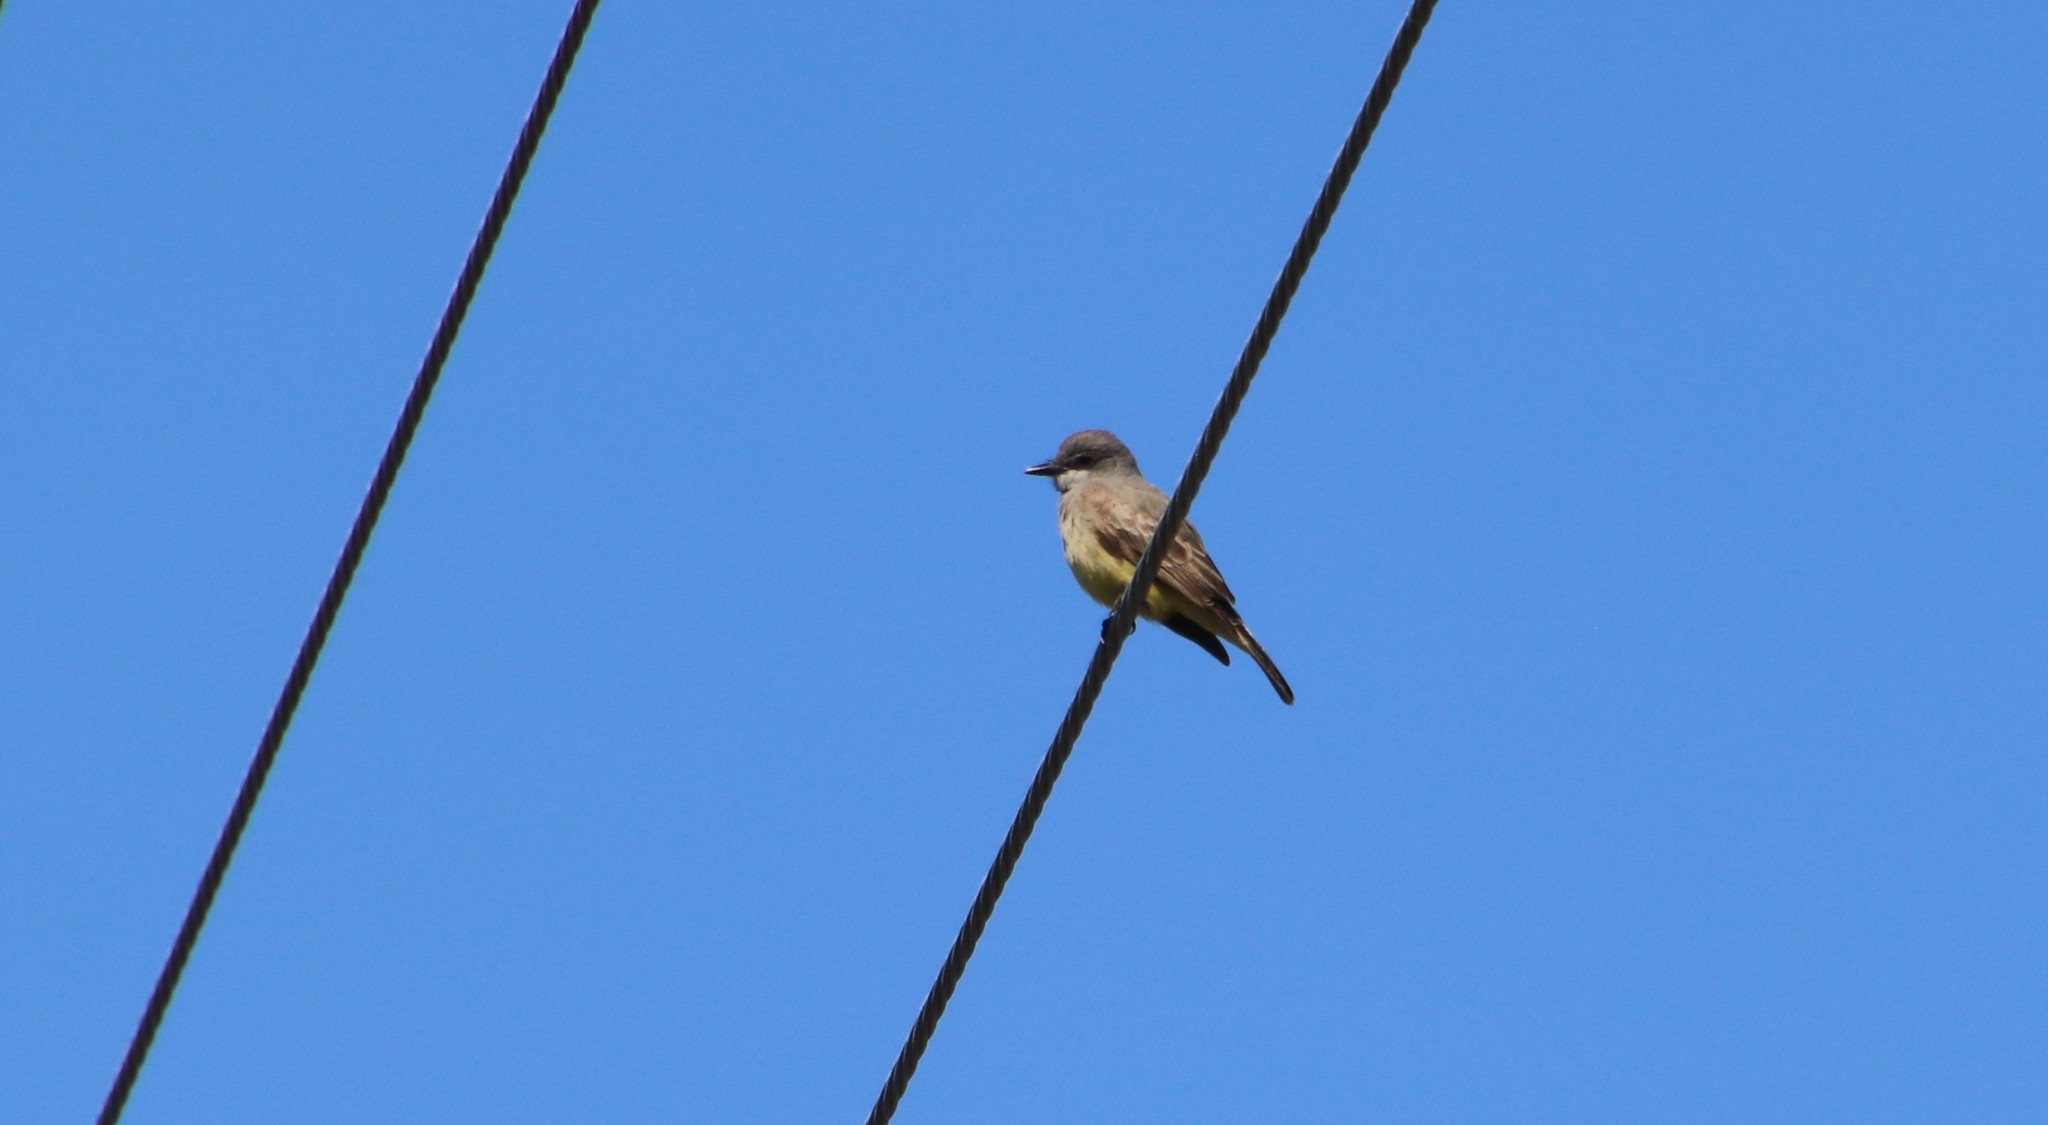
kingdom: Animalia
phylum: Chordata
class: Aves
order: Passeriformes
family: Tyrannidae
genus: Tyrannus
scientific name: Tyrannus vociferans
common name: Cassin's kingbird
